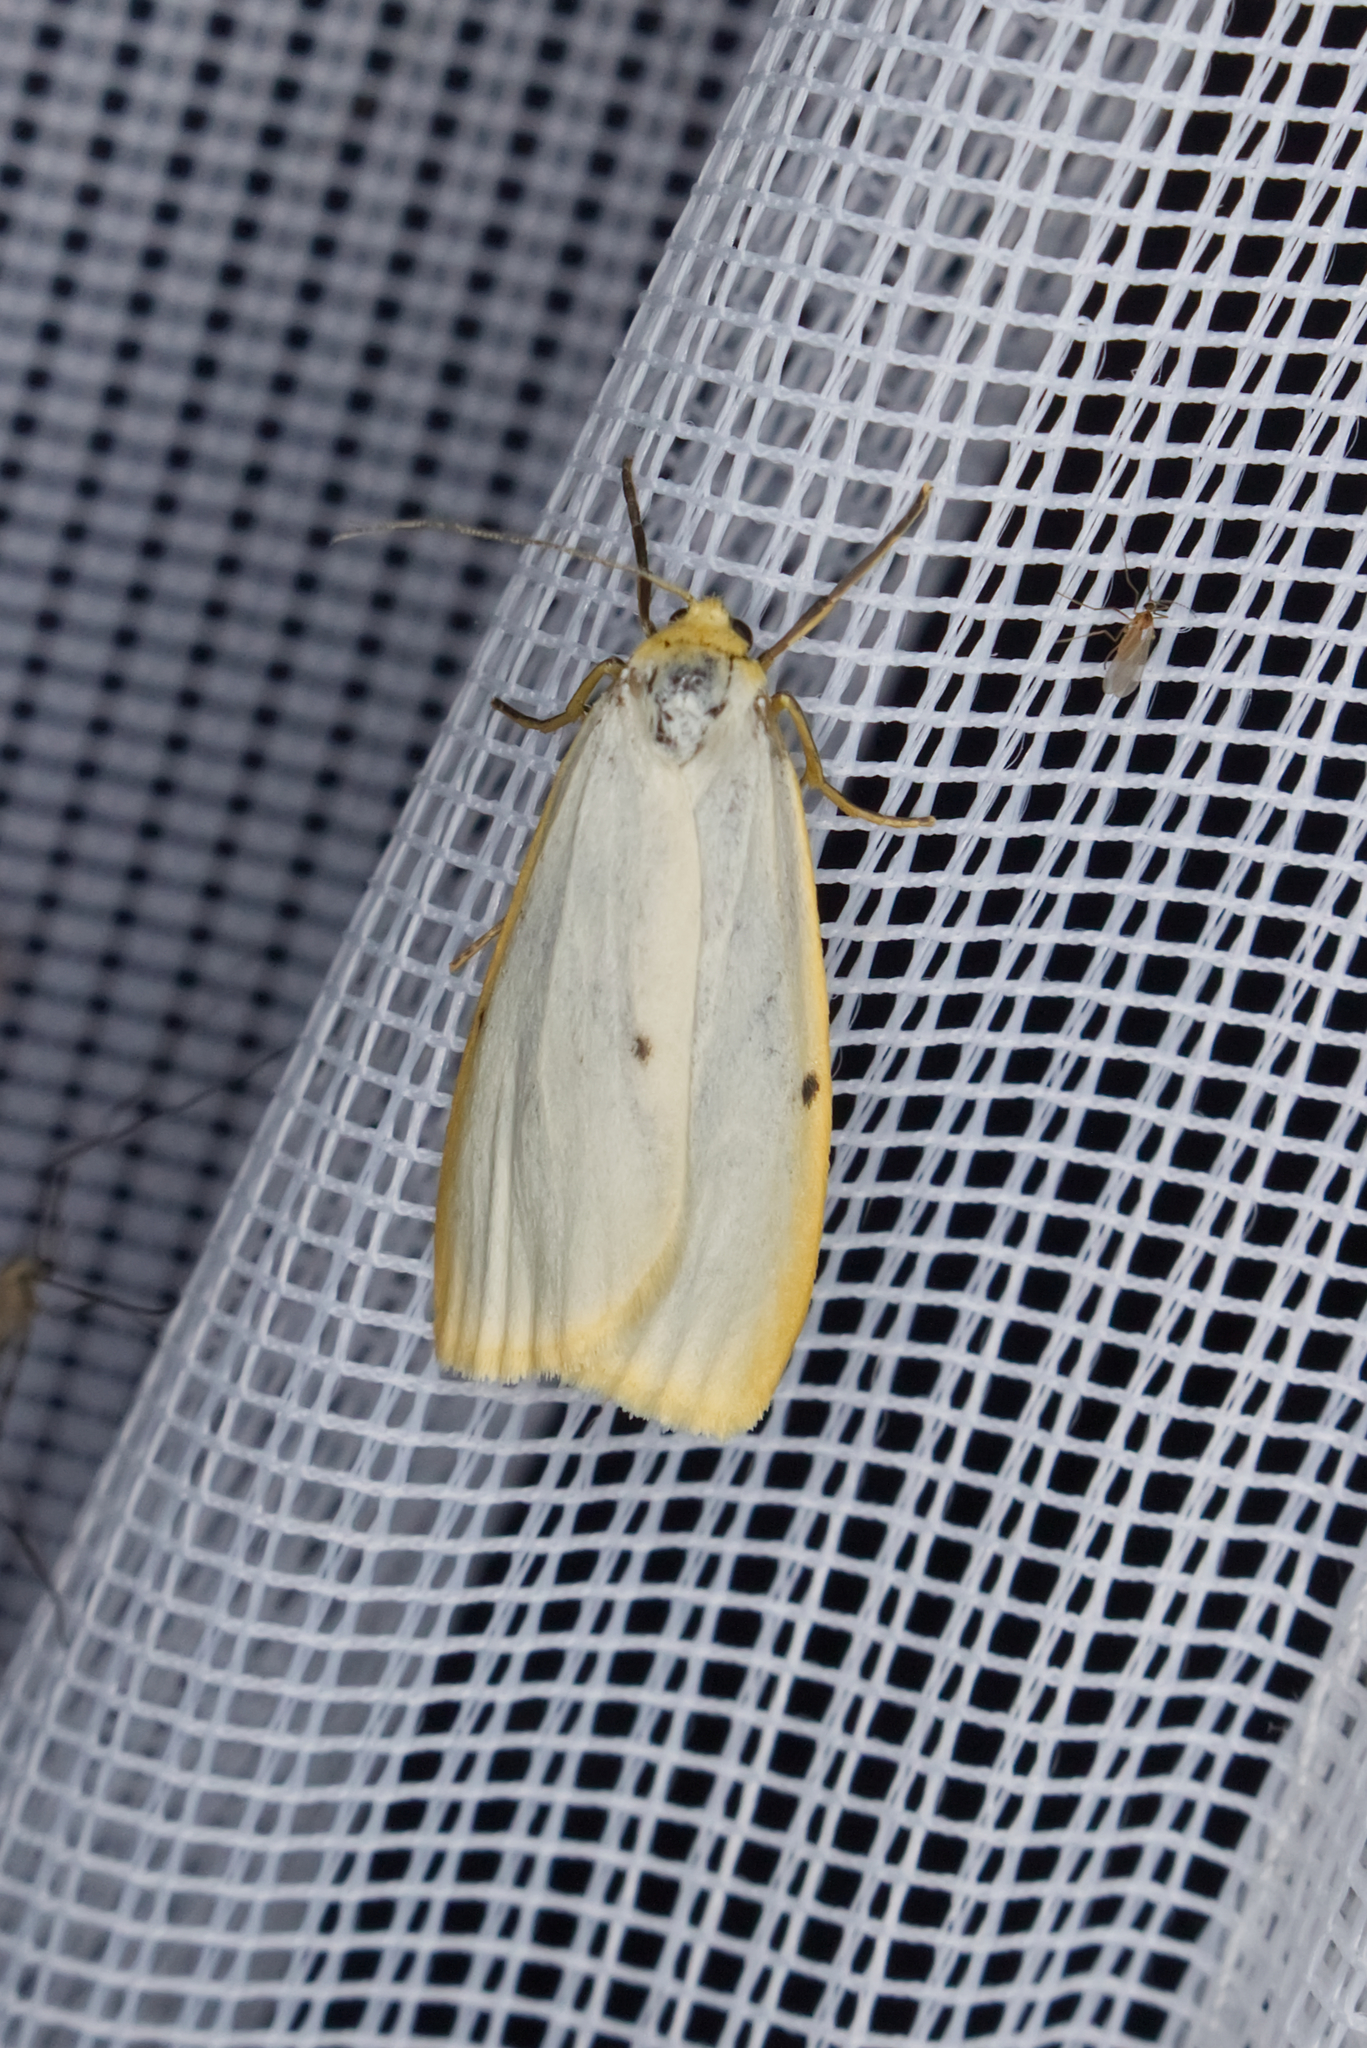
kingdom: Animalia
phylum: Arthropoda
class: Insecta
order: Lepidoptera
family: Erebidae
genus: Cybosia
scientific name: Cybosia mesomella
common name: Four-dotted footman
